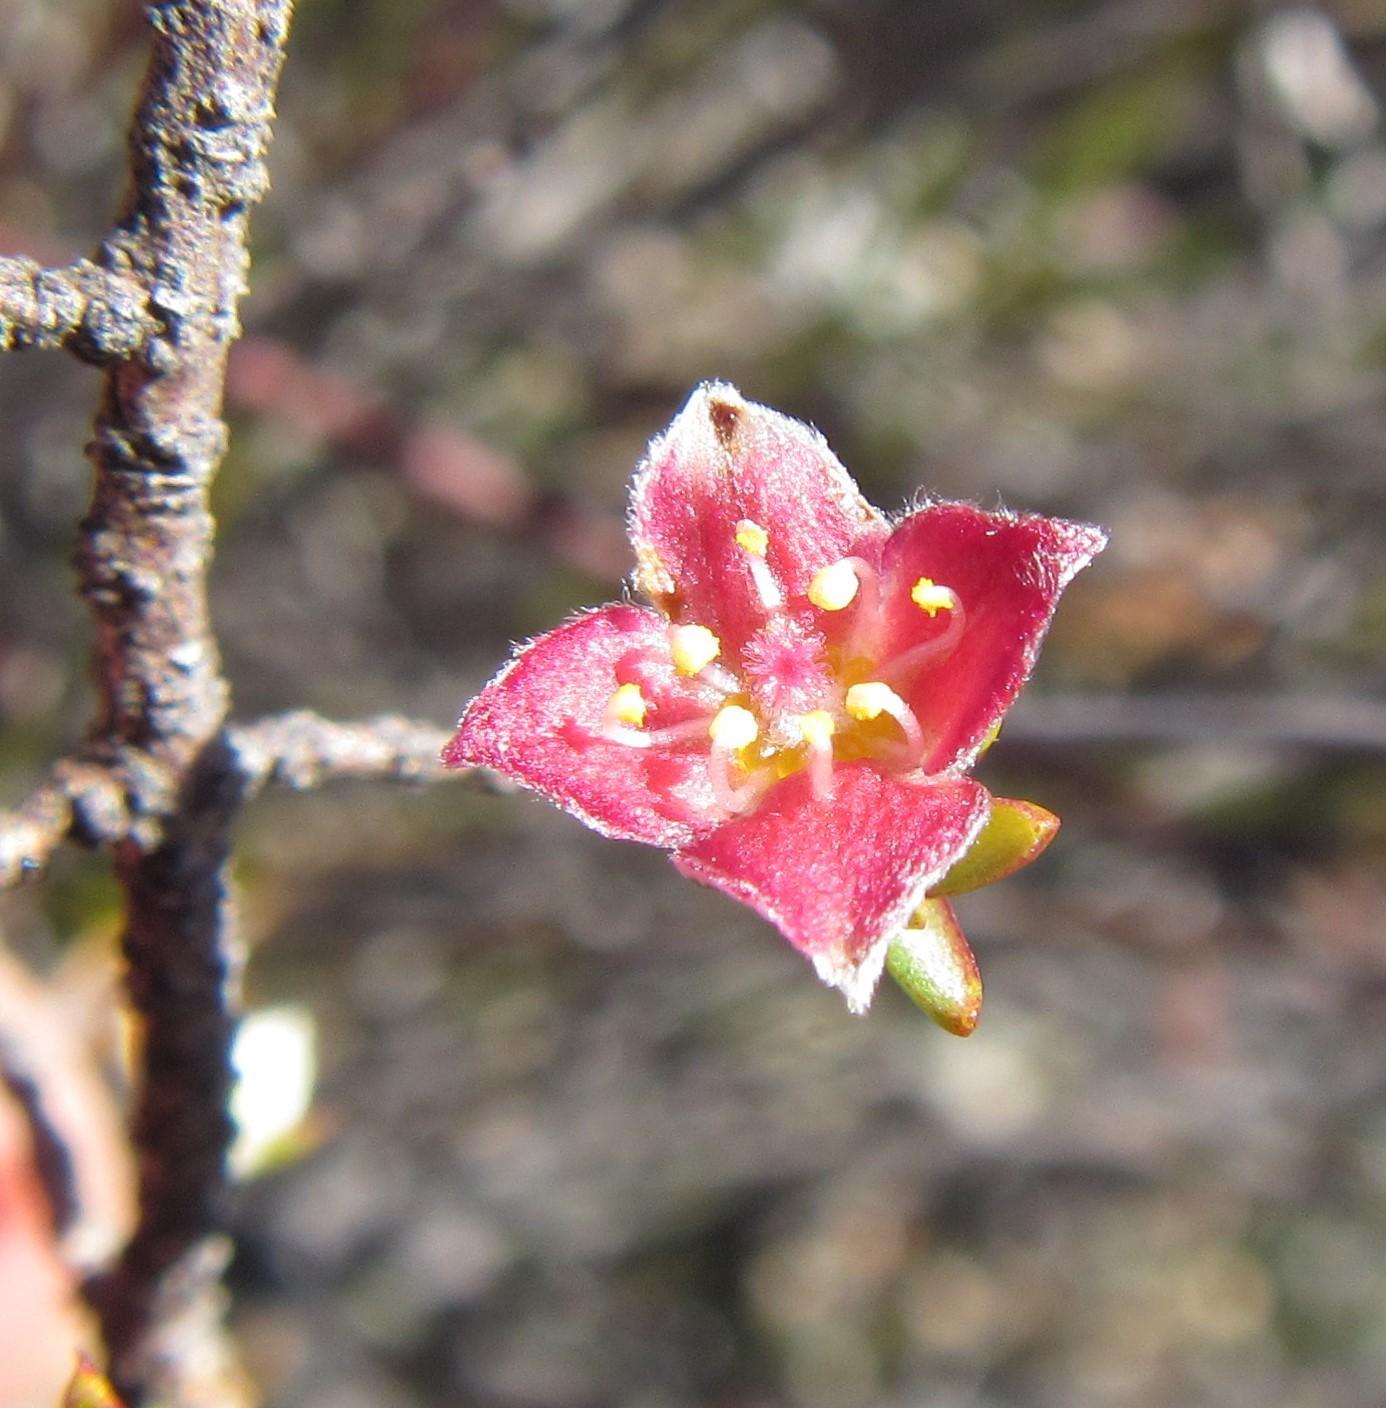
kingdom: Plantae
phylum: Tracheophyta
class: Magnoliopsida
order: Malvales
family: Thymelaeaceae
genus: Lachnaea
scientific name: Lachnaea pudens
